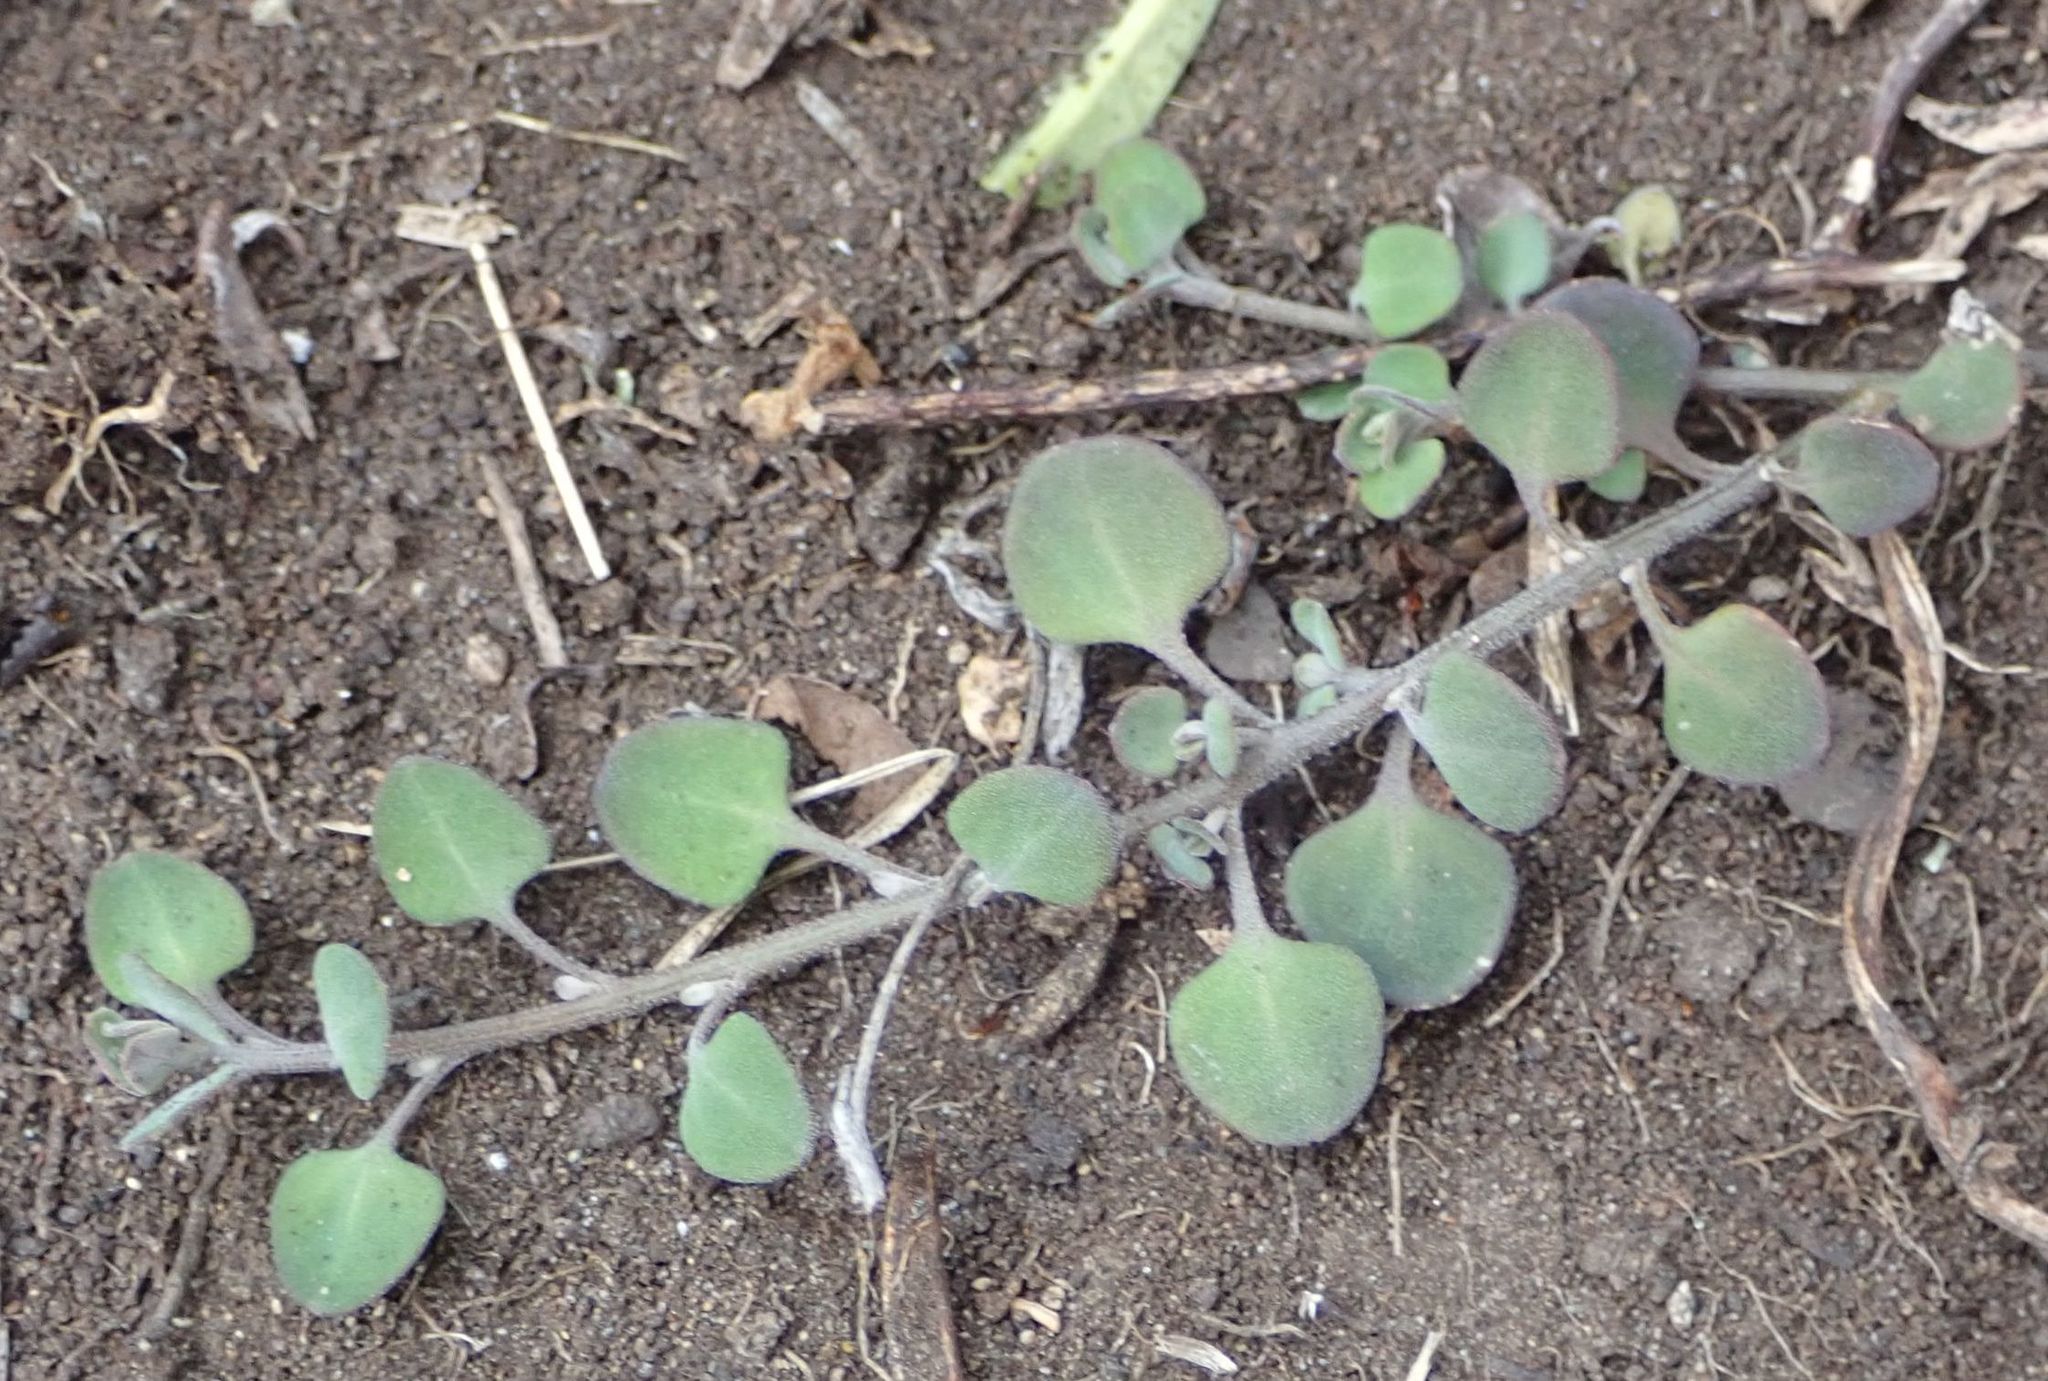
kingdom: Plantae
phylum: Tracheophyta
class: Magnoliopsida
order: Caryophyllales
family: Amaranthaceae
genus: Chenopodium
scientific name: Chenopodium allanii
